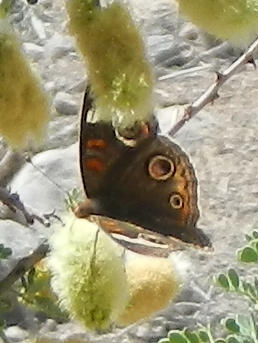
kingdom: Animalia
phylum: Arthropoda
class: Insecta
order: Lepidoptera
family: Nymphalidae
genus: Junonia
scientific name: Junonia grisea
